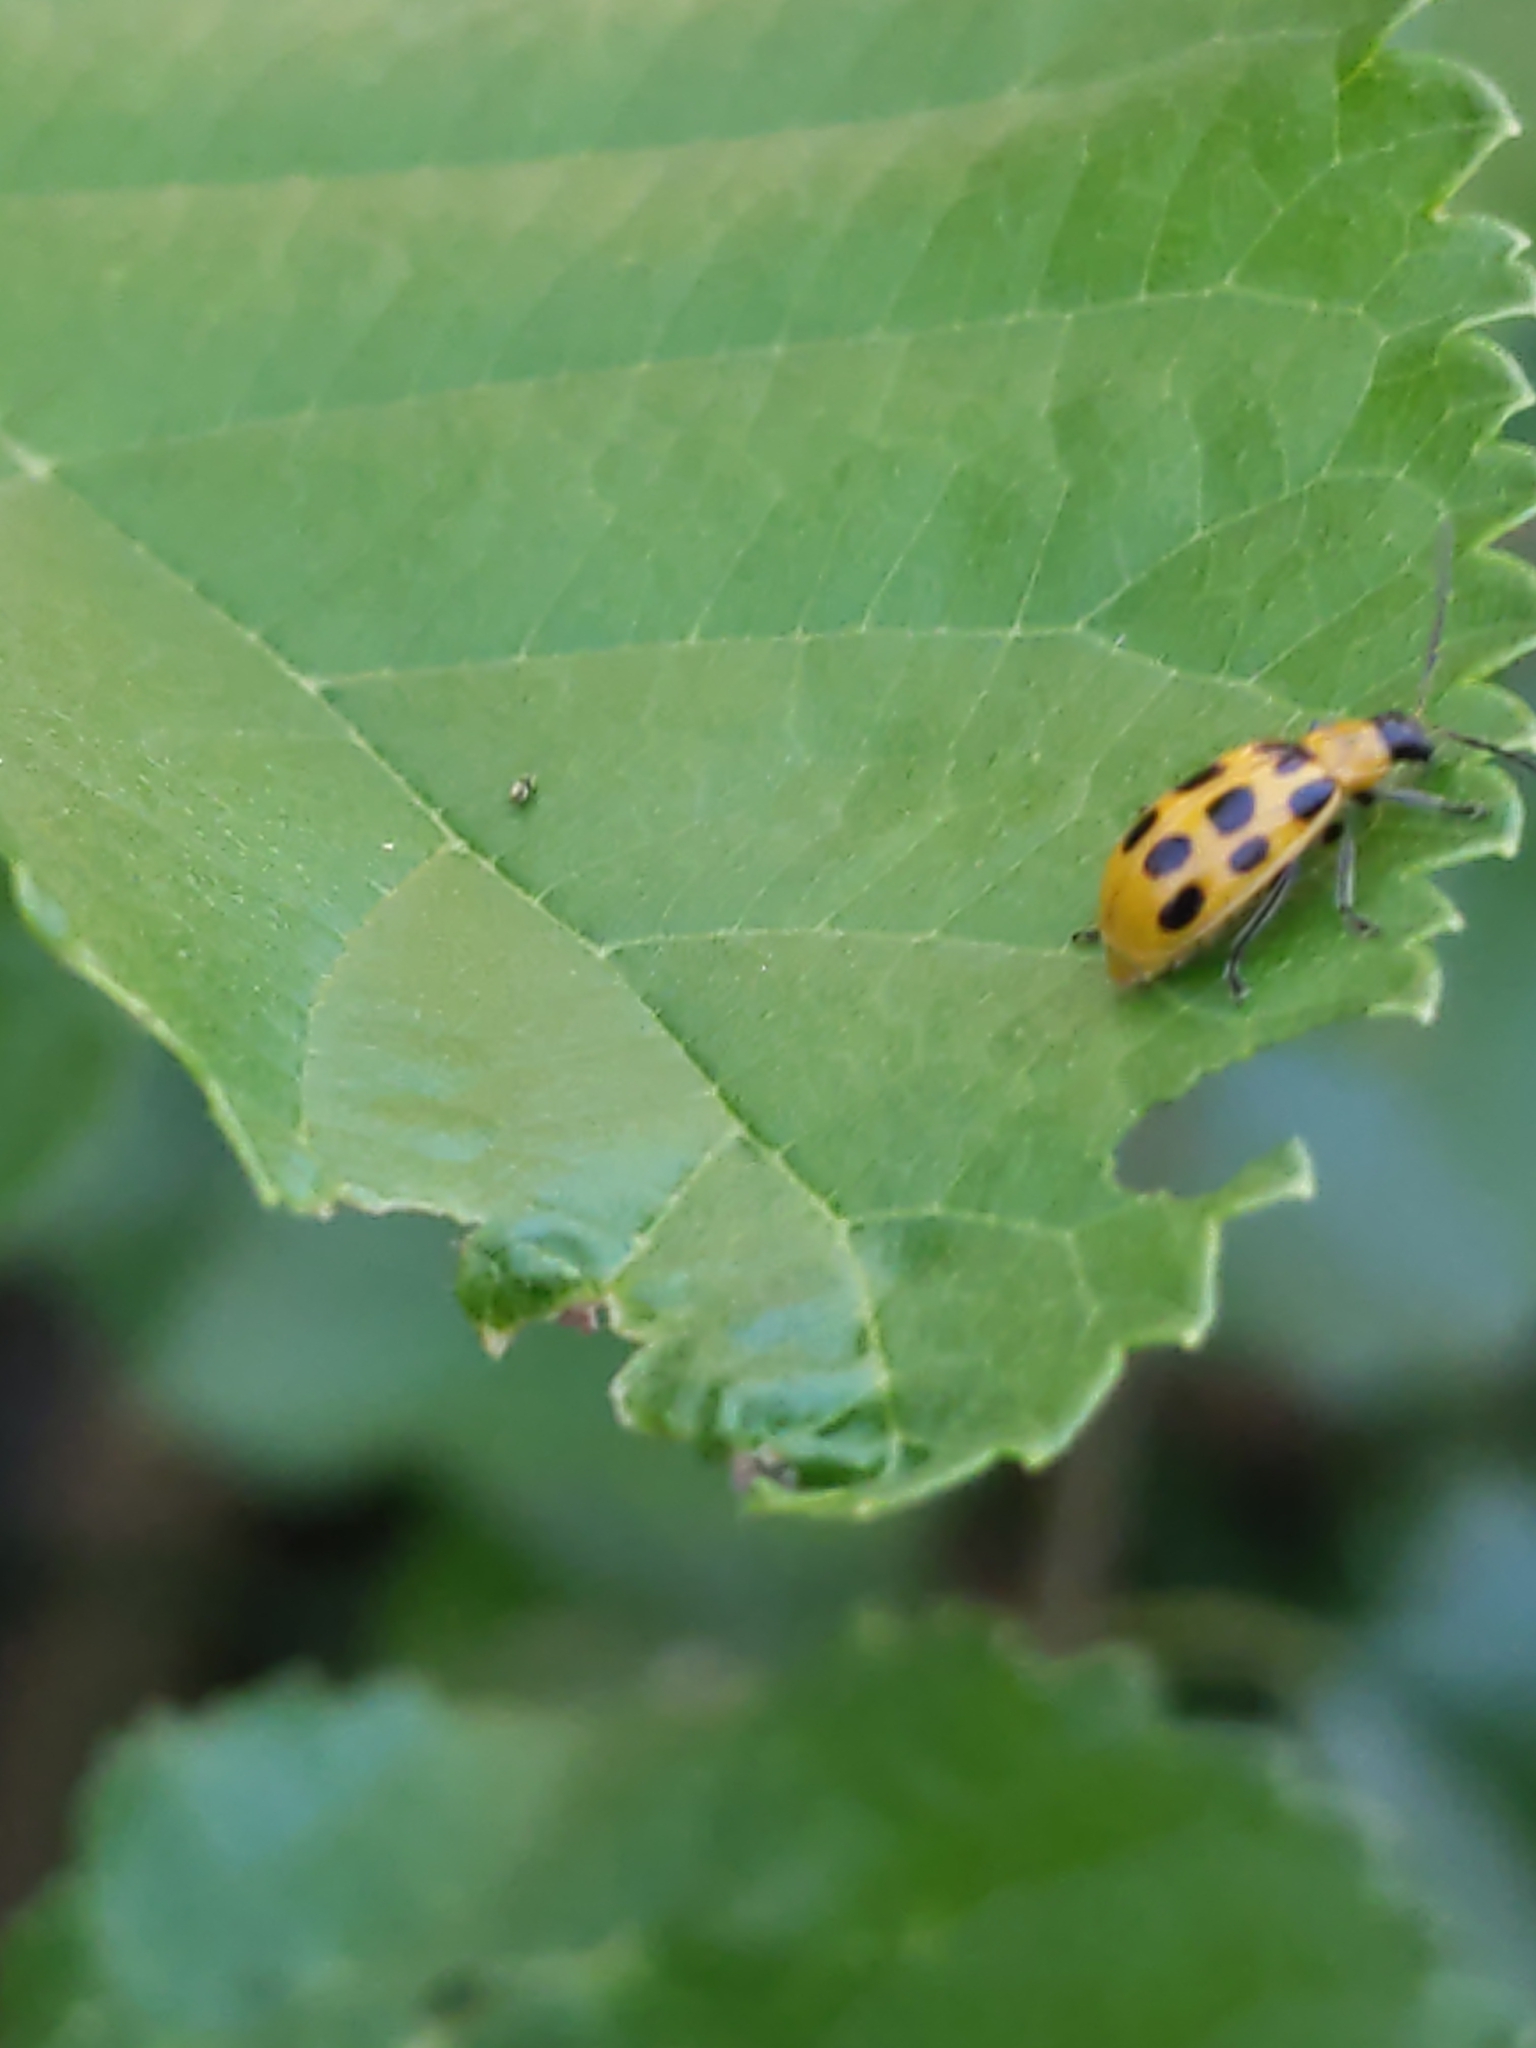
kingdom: Animalia
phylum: Arthropoda
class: Insecta
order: Coleoptera
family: Chrysomelidae
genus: Diabrotica
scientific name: Diabrotica undecimpunctata
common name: Spotted cucumber beetle
